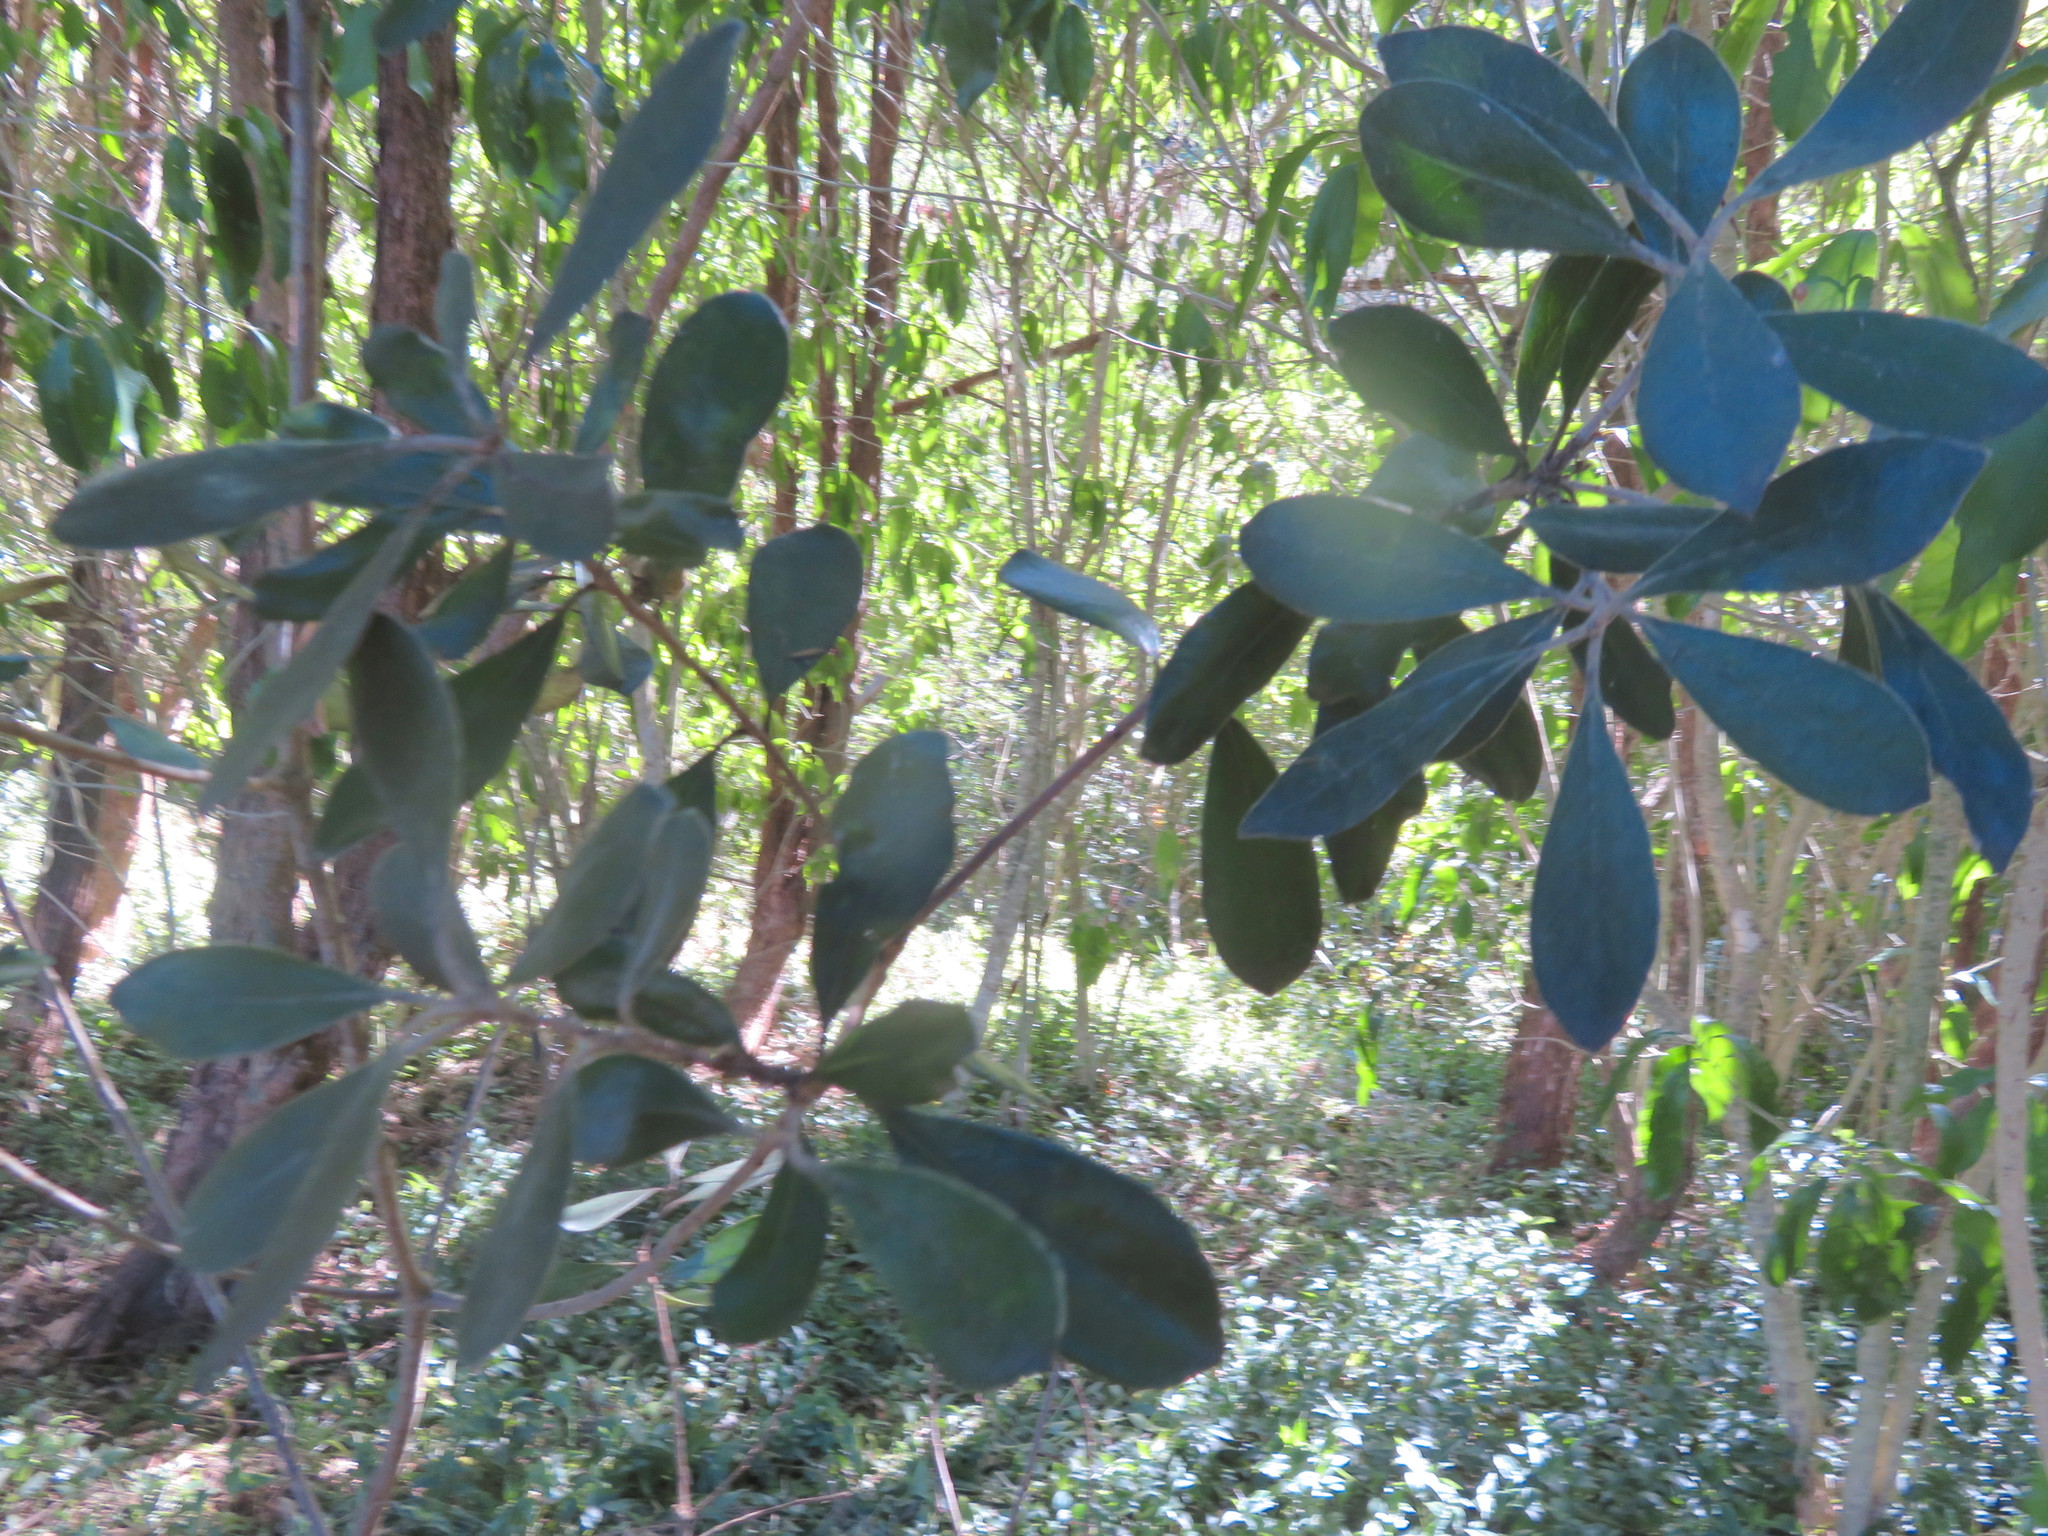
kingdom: Plantae
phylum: Tracheophyta
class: Liliopsida
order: Commelinales
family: Commelinaceae
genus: Tradescantia
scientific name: Tradescantia fluminensis
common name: Wandering-jew
